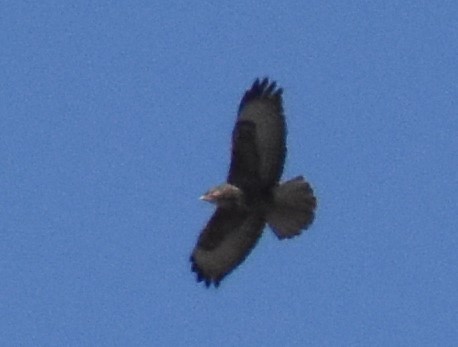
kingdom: Animalia
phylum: Chordata
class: Aves
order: Accipitriformes
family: Accipitridae
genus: Buteo
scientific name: Buteo buteo
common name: Common buzzard
